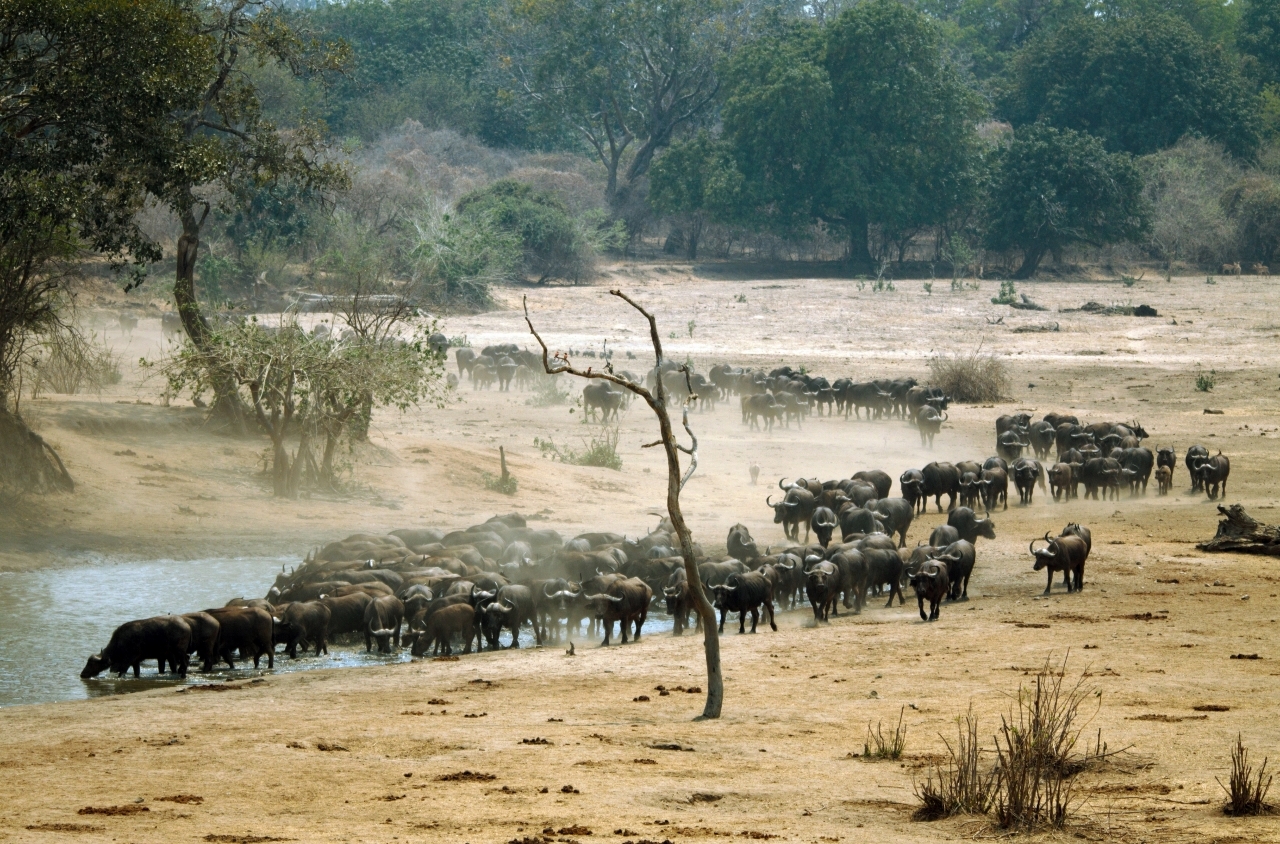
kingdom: Animalia
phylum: Chordata
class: Mammalia
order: Artiodactyla
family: Bovidae
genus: Syncerus
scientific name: Syncerus caffer
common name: African buffalo
